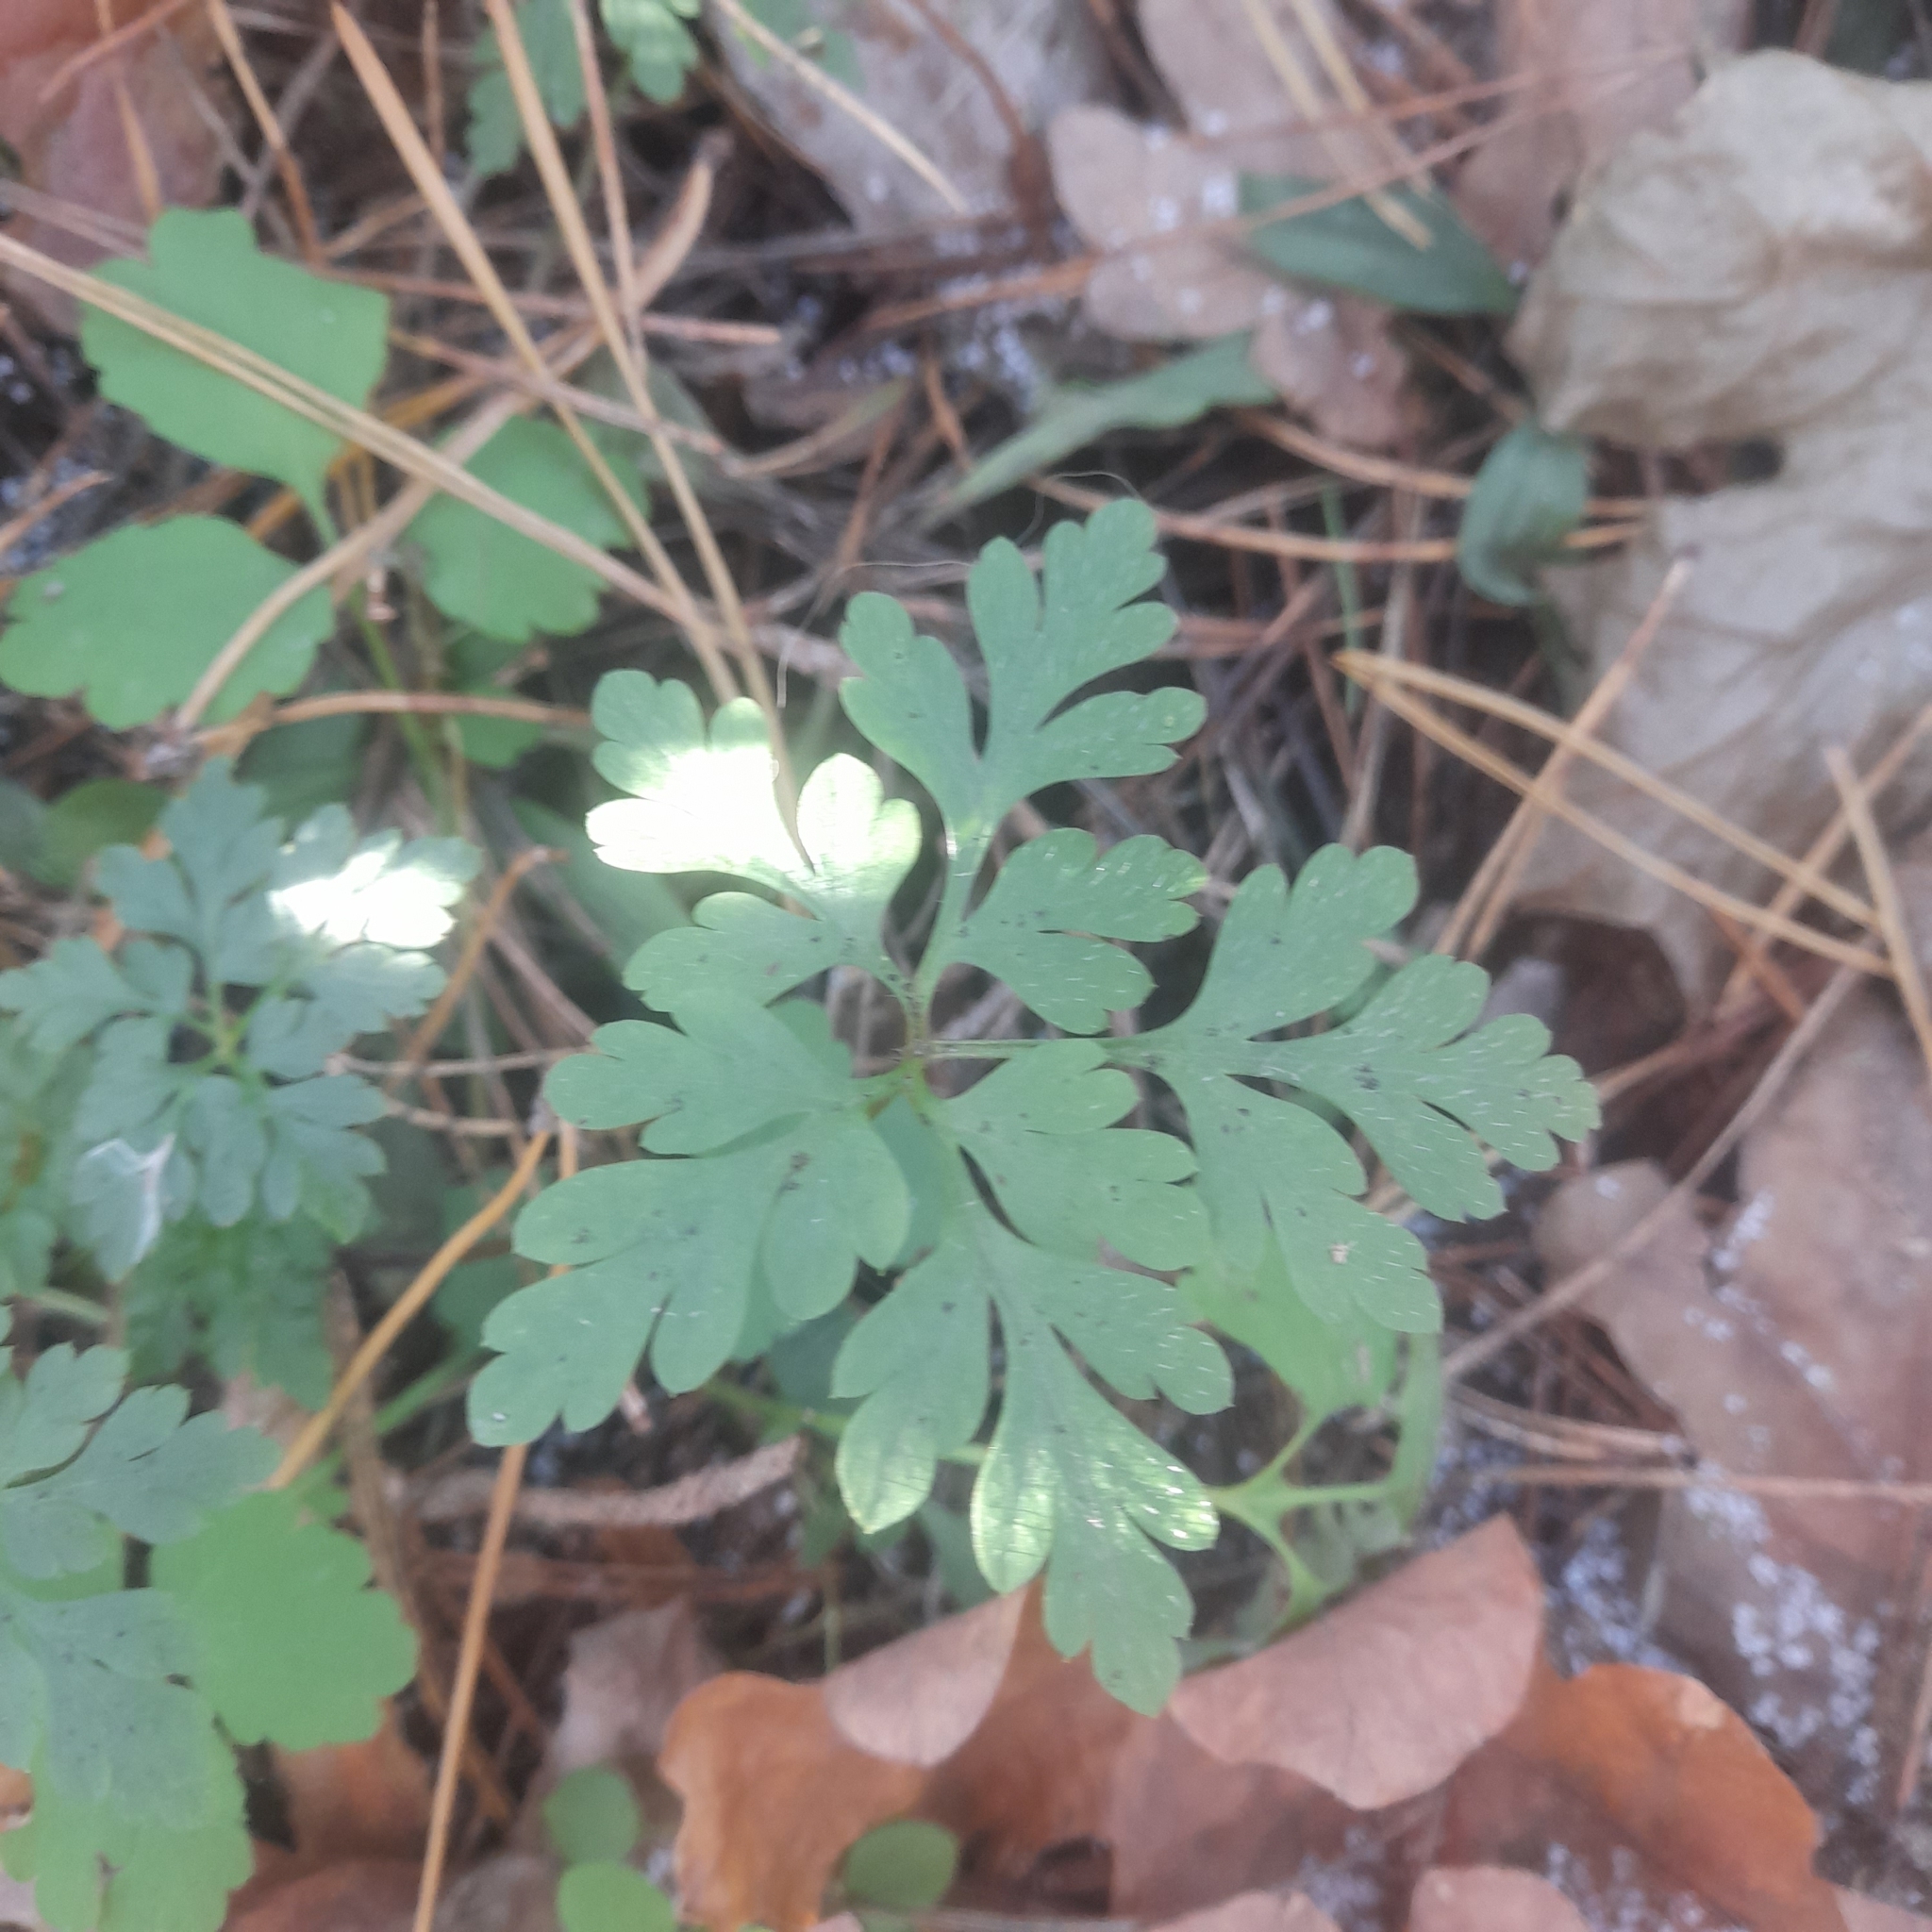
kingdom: Plantae
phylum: Tracheophyta
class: Magnoliopsida
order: Geraniales
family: Geraniaceae
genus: Geranium
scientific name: Geranium robertianum
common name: Herb-robert
